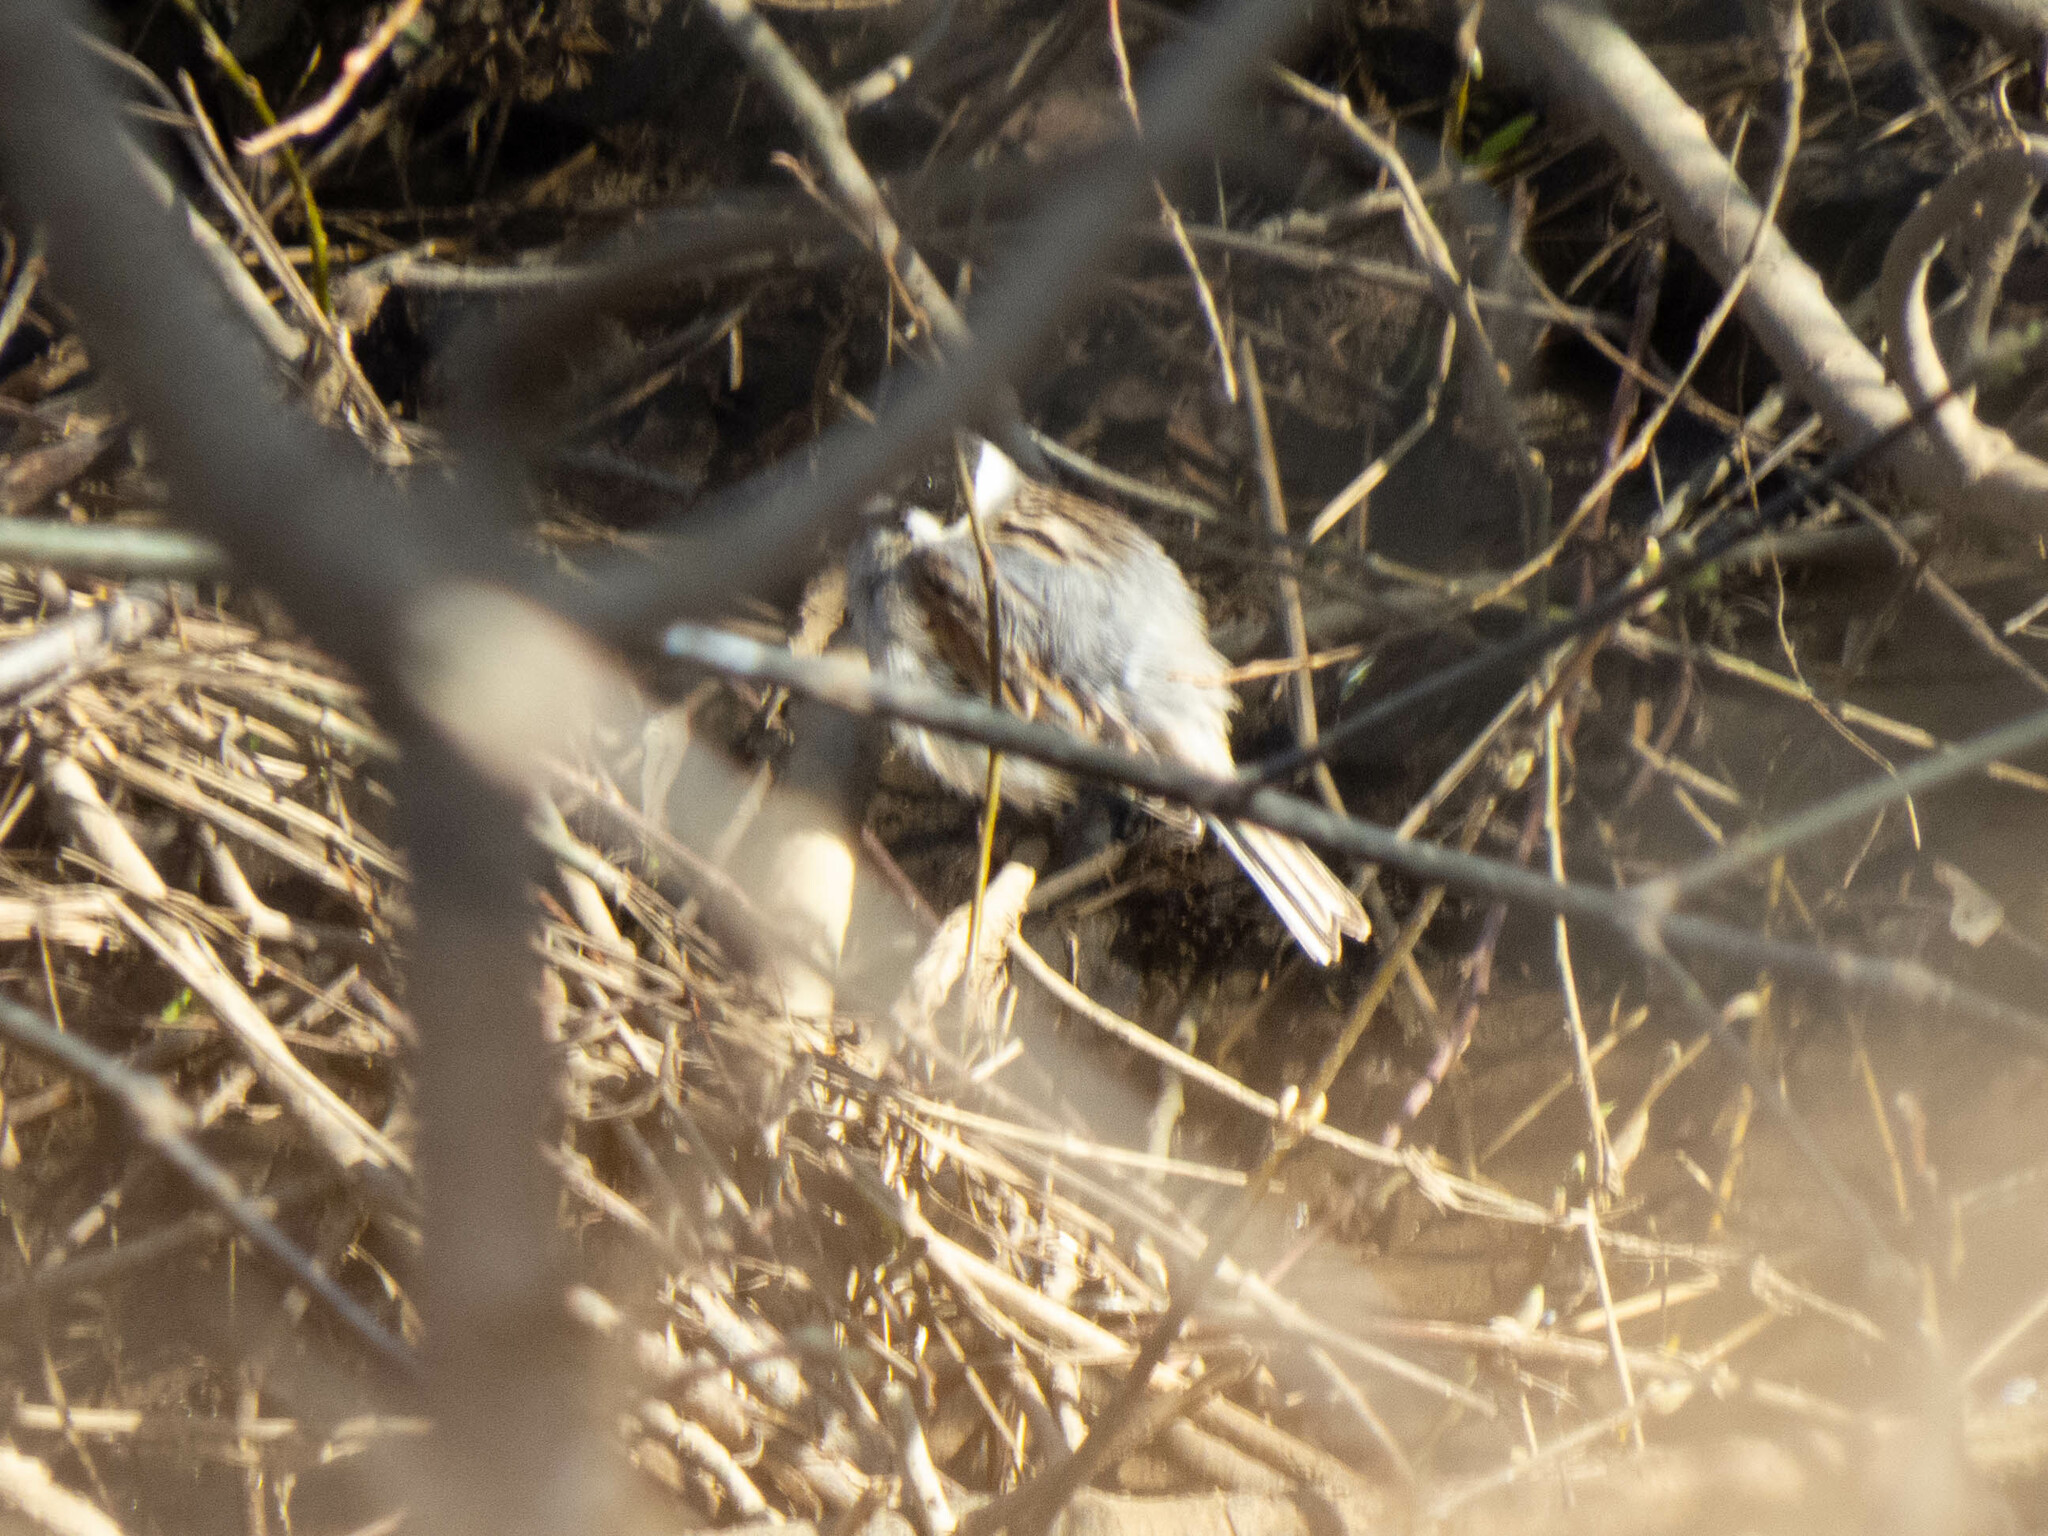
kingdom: Animalia
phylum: Chordata
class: Aves
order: Passeriformes
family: Emberizidae
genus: Emberiza
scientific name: Emberiza schoeniclus
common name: Reed bunting
